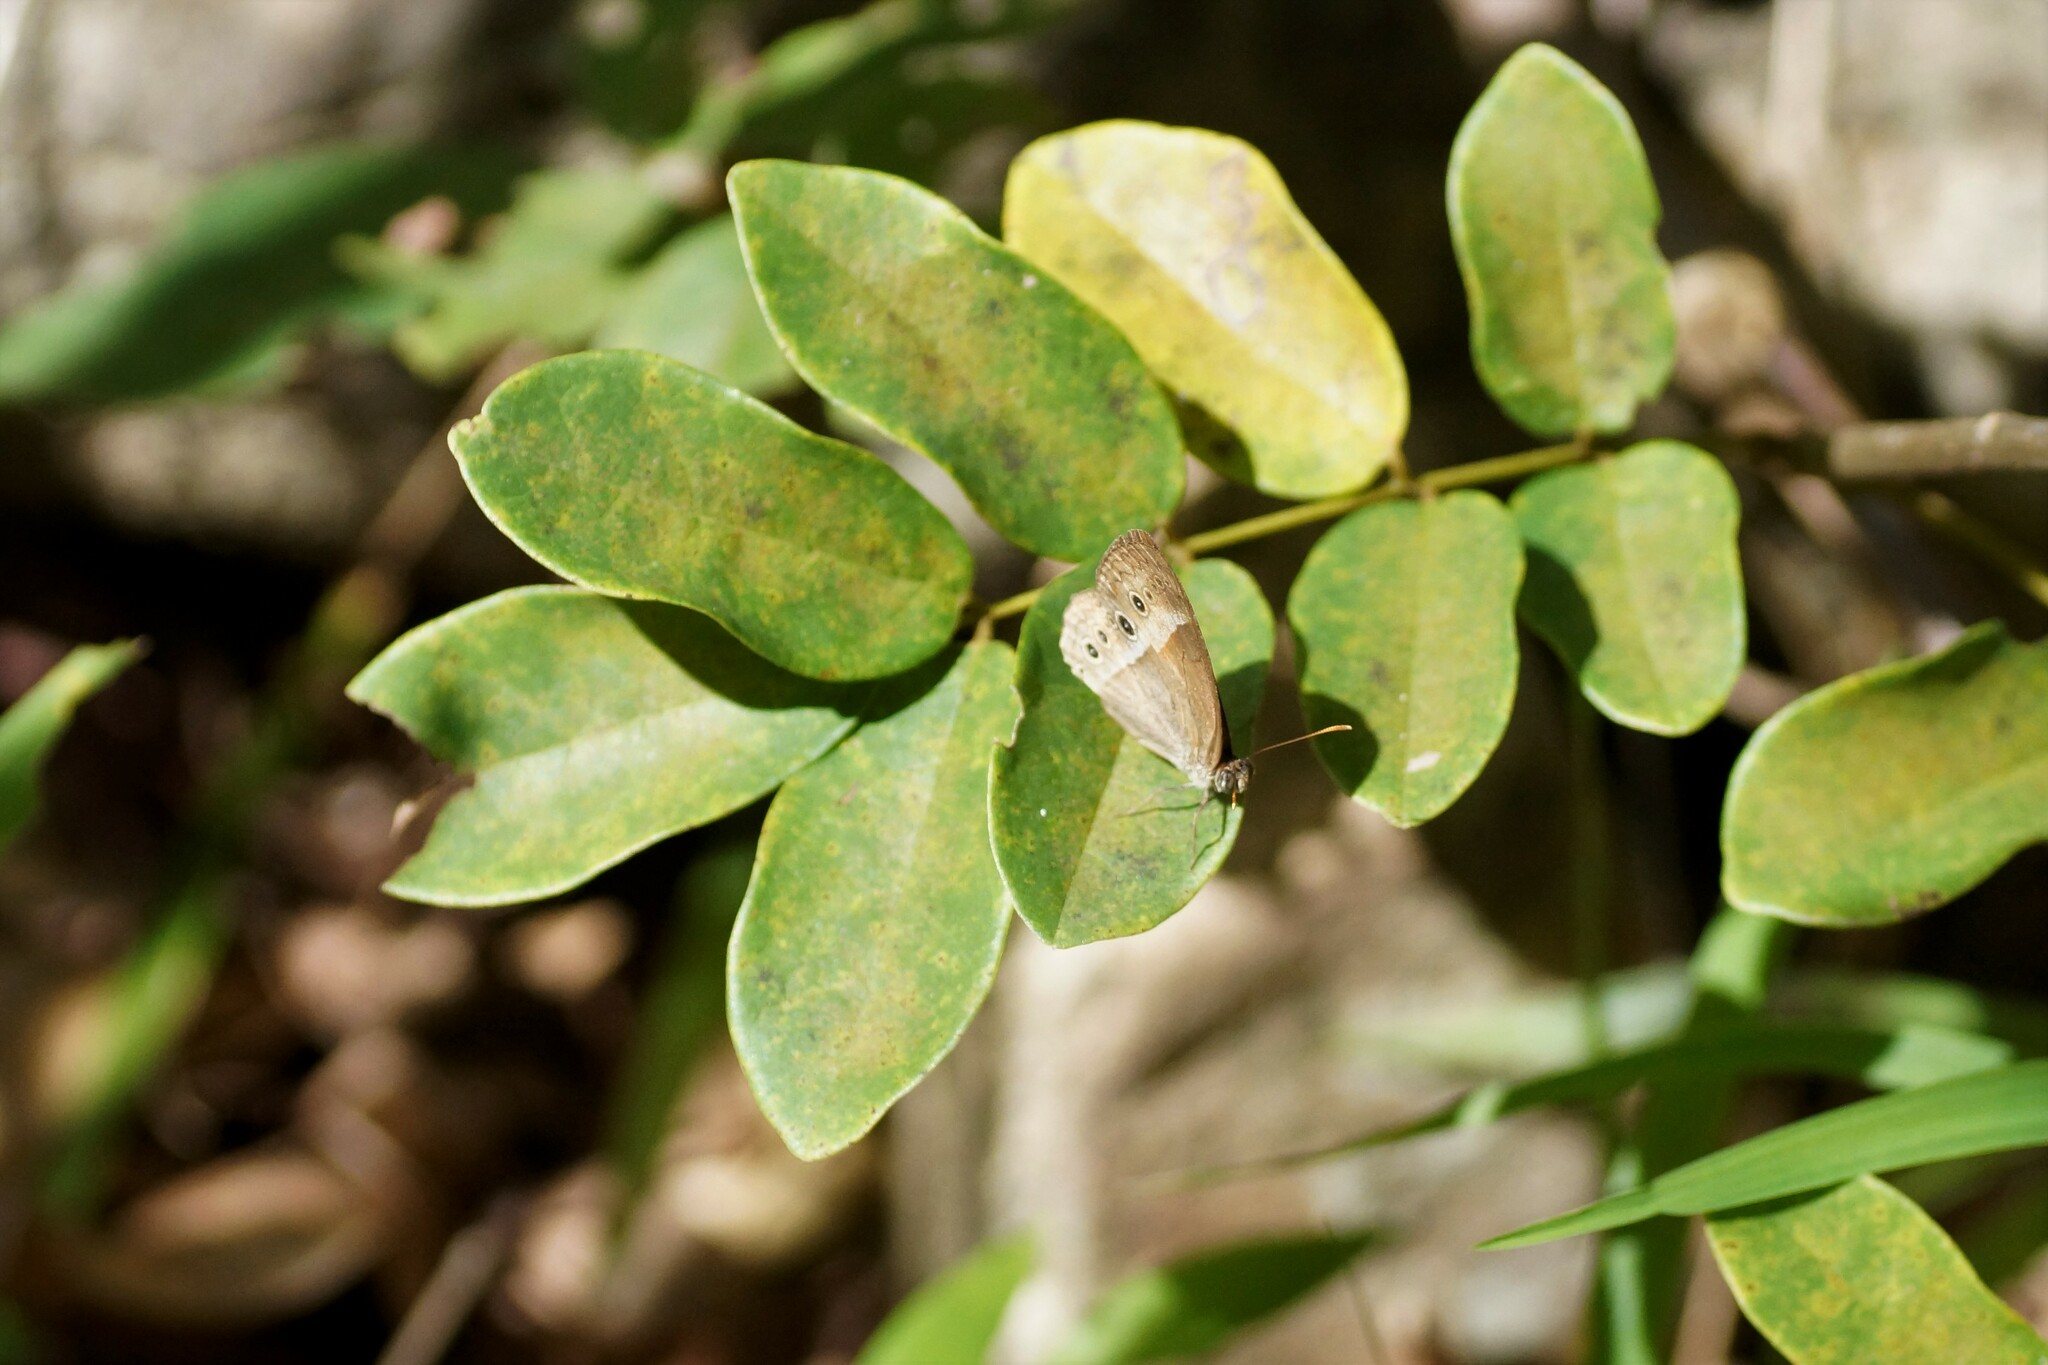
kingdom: Animalia
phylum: Arthropoda
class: Insecta
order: Lepidoptera
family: Nymphalidae
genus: Mycalesis
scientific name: Mycalesis terminus
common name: Orange bushbrown
